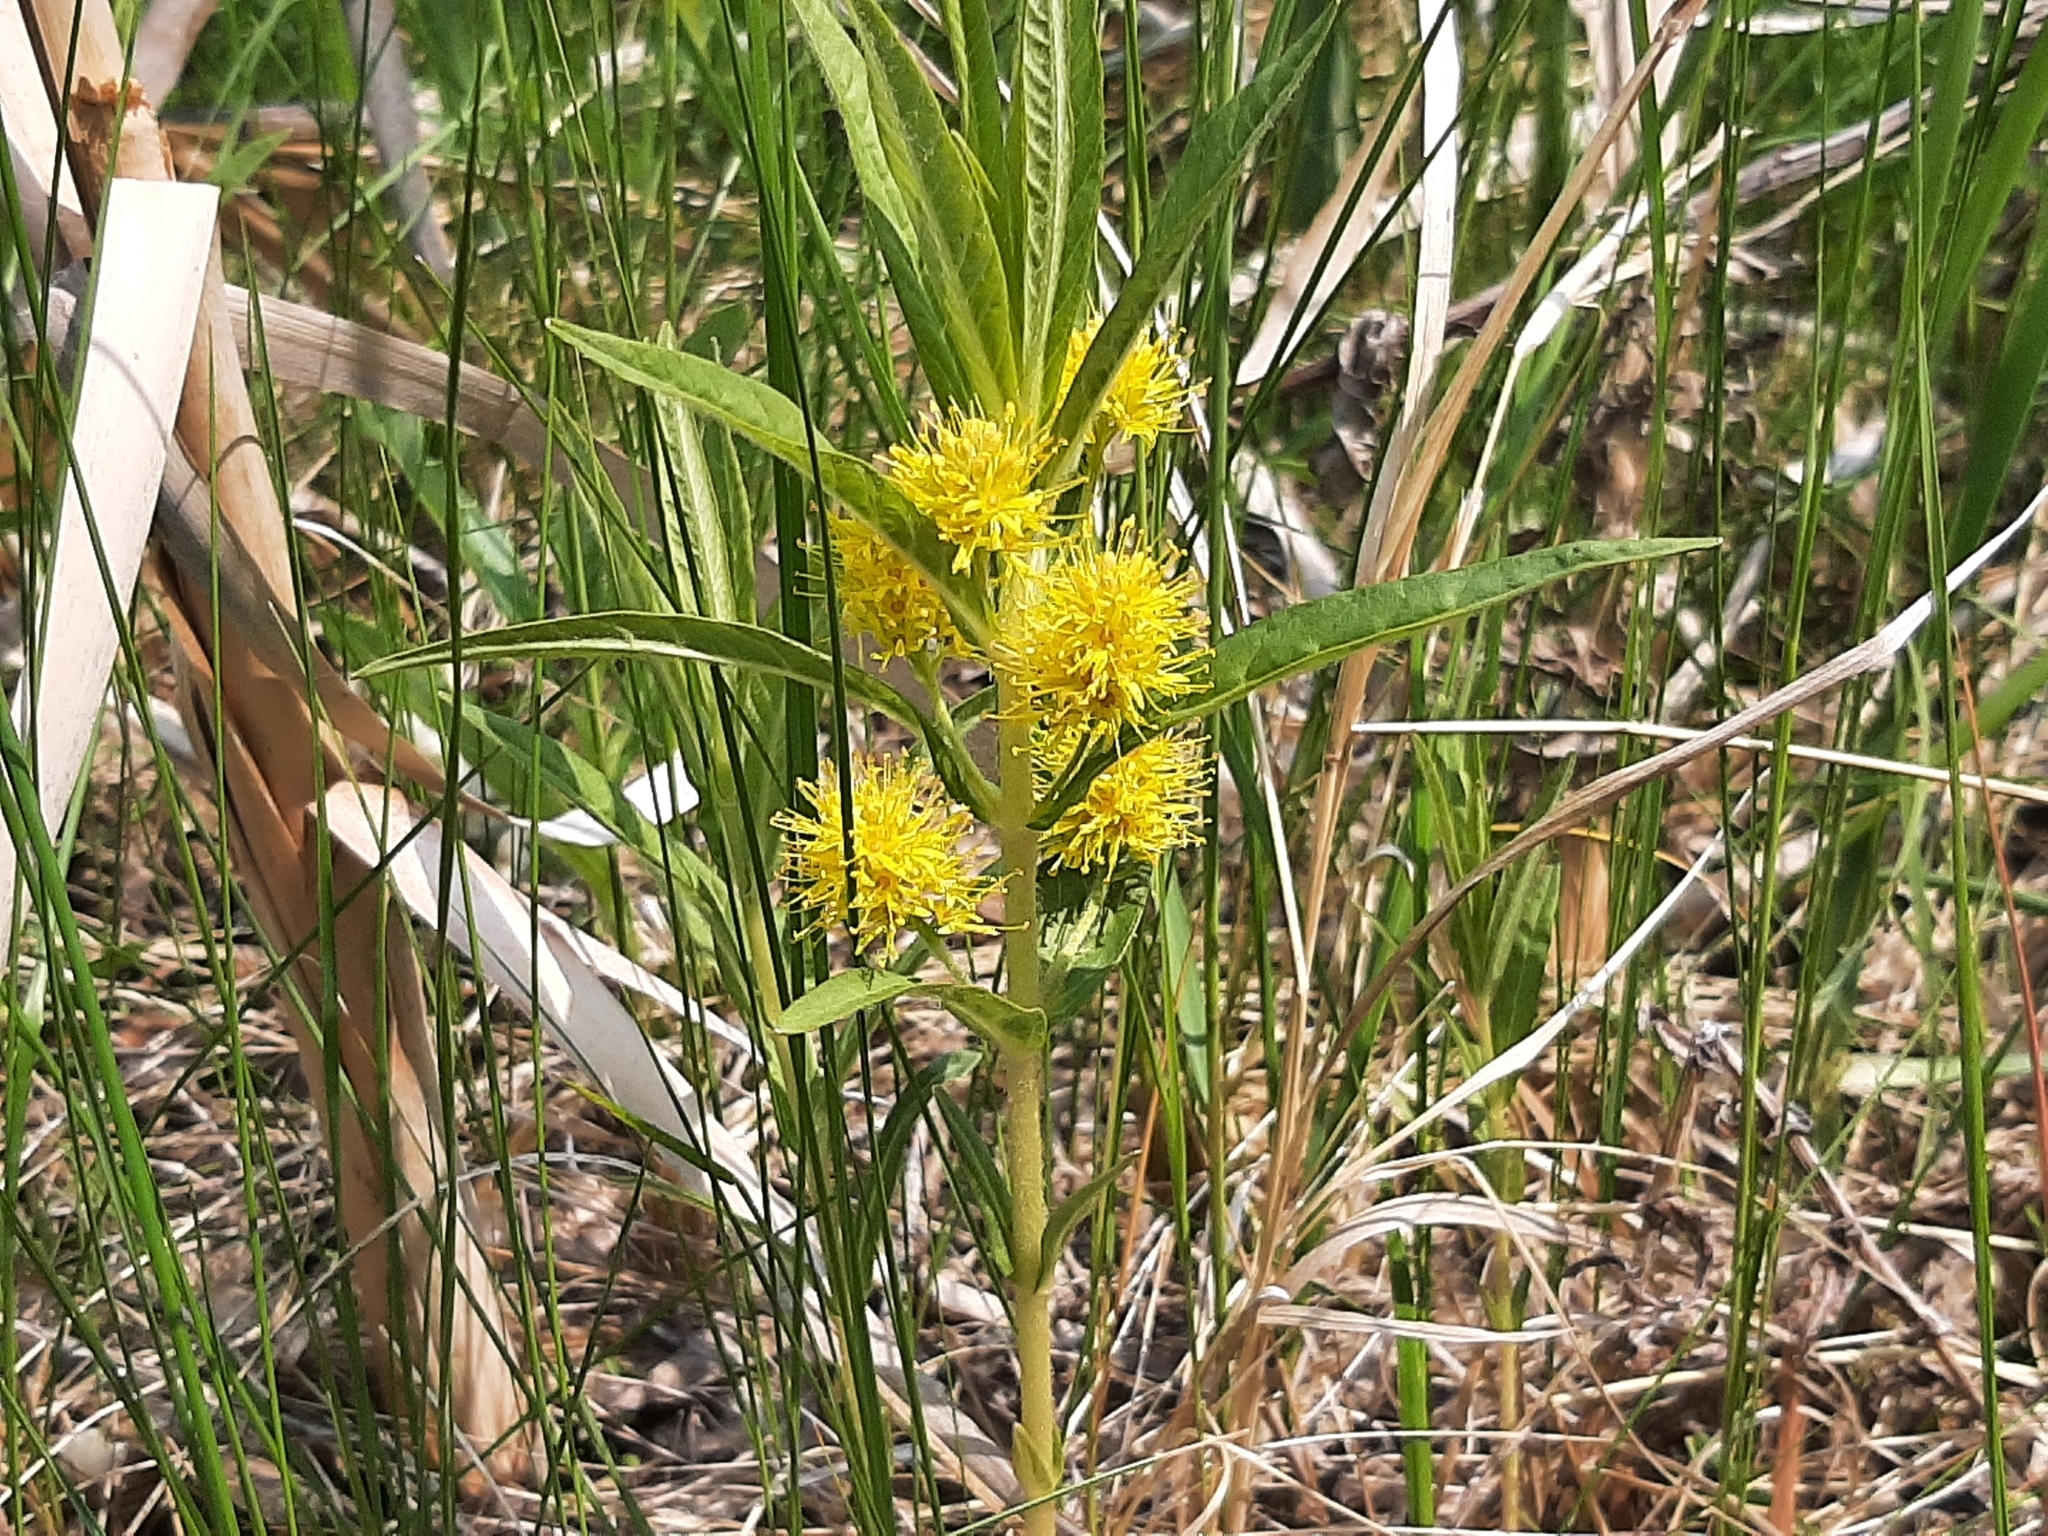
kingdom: Plantae
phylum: Tracheophyta
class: Magnoliopsida
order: Ericales
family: Primulaceae
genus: Lysimachia
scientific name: Lysimachia thyrsiflora
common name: Tufted loosestrife
